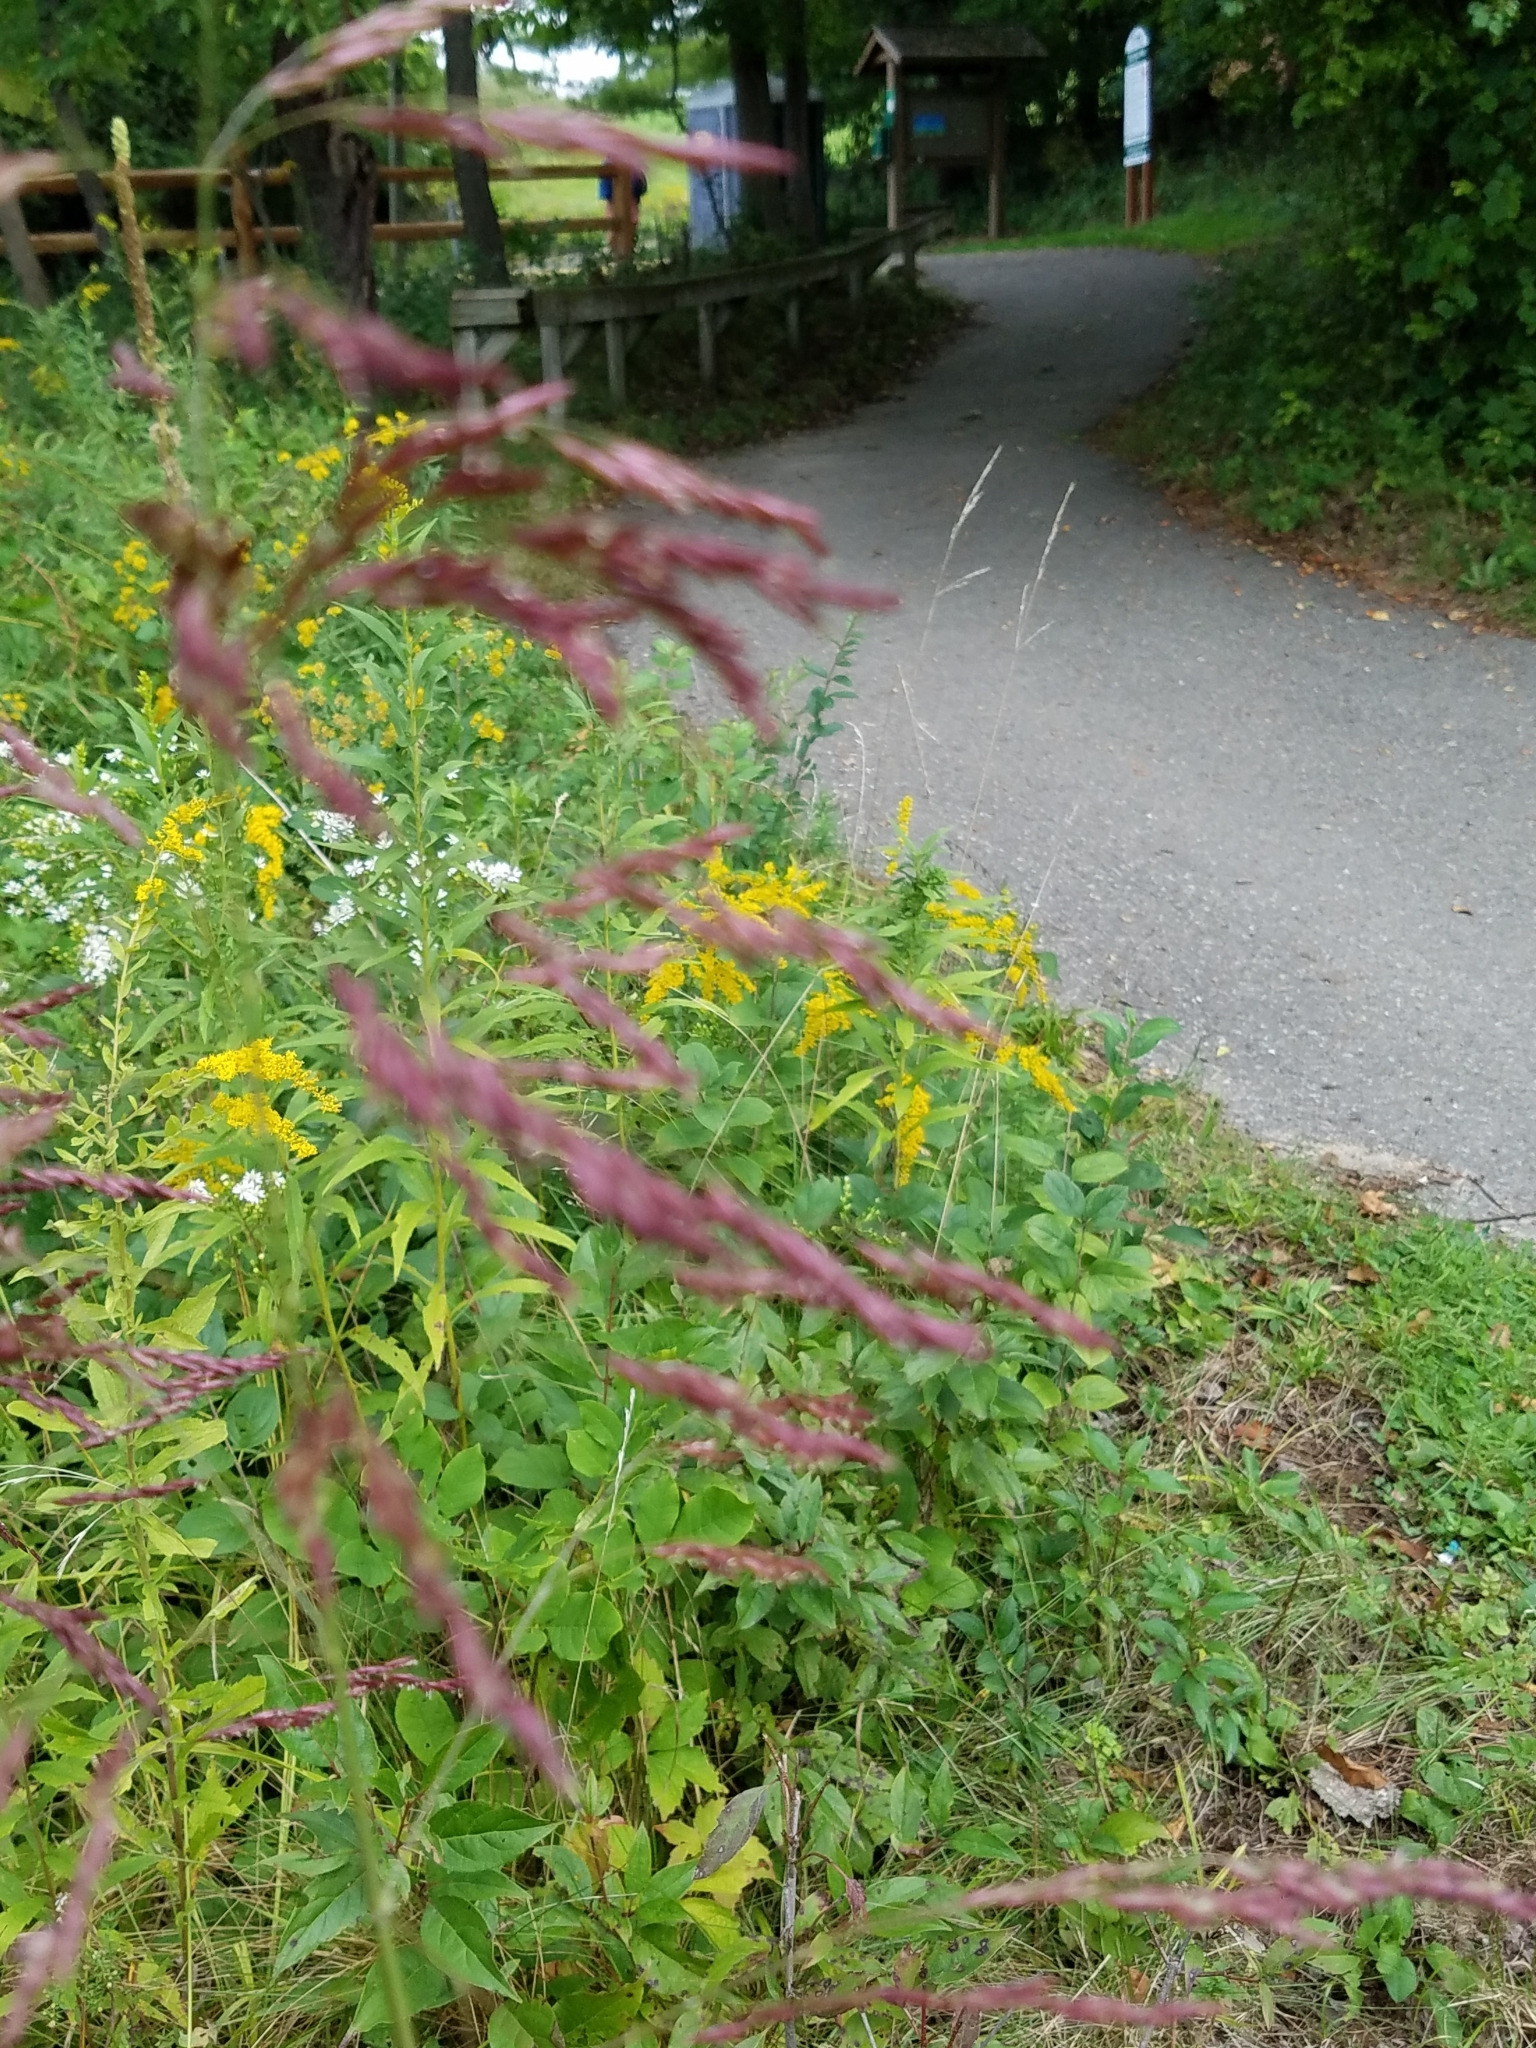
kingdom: Plantae
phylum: Tracheophyta
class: Liliopsida
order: Poales
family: Poaceae
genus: Tridens
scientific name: Tridens flavus
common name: Purpletop
